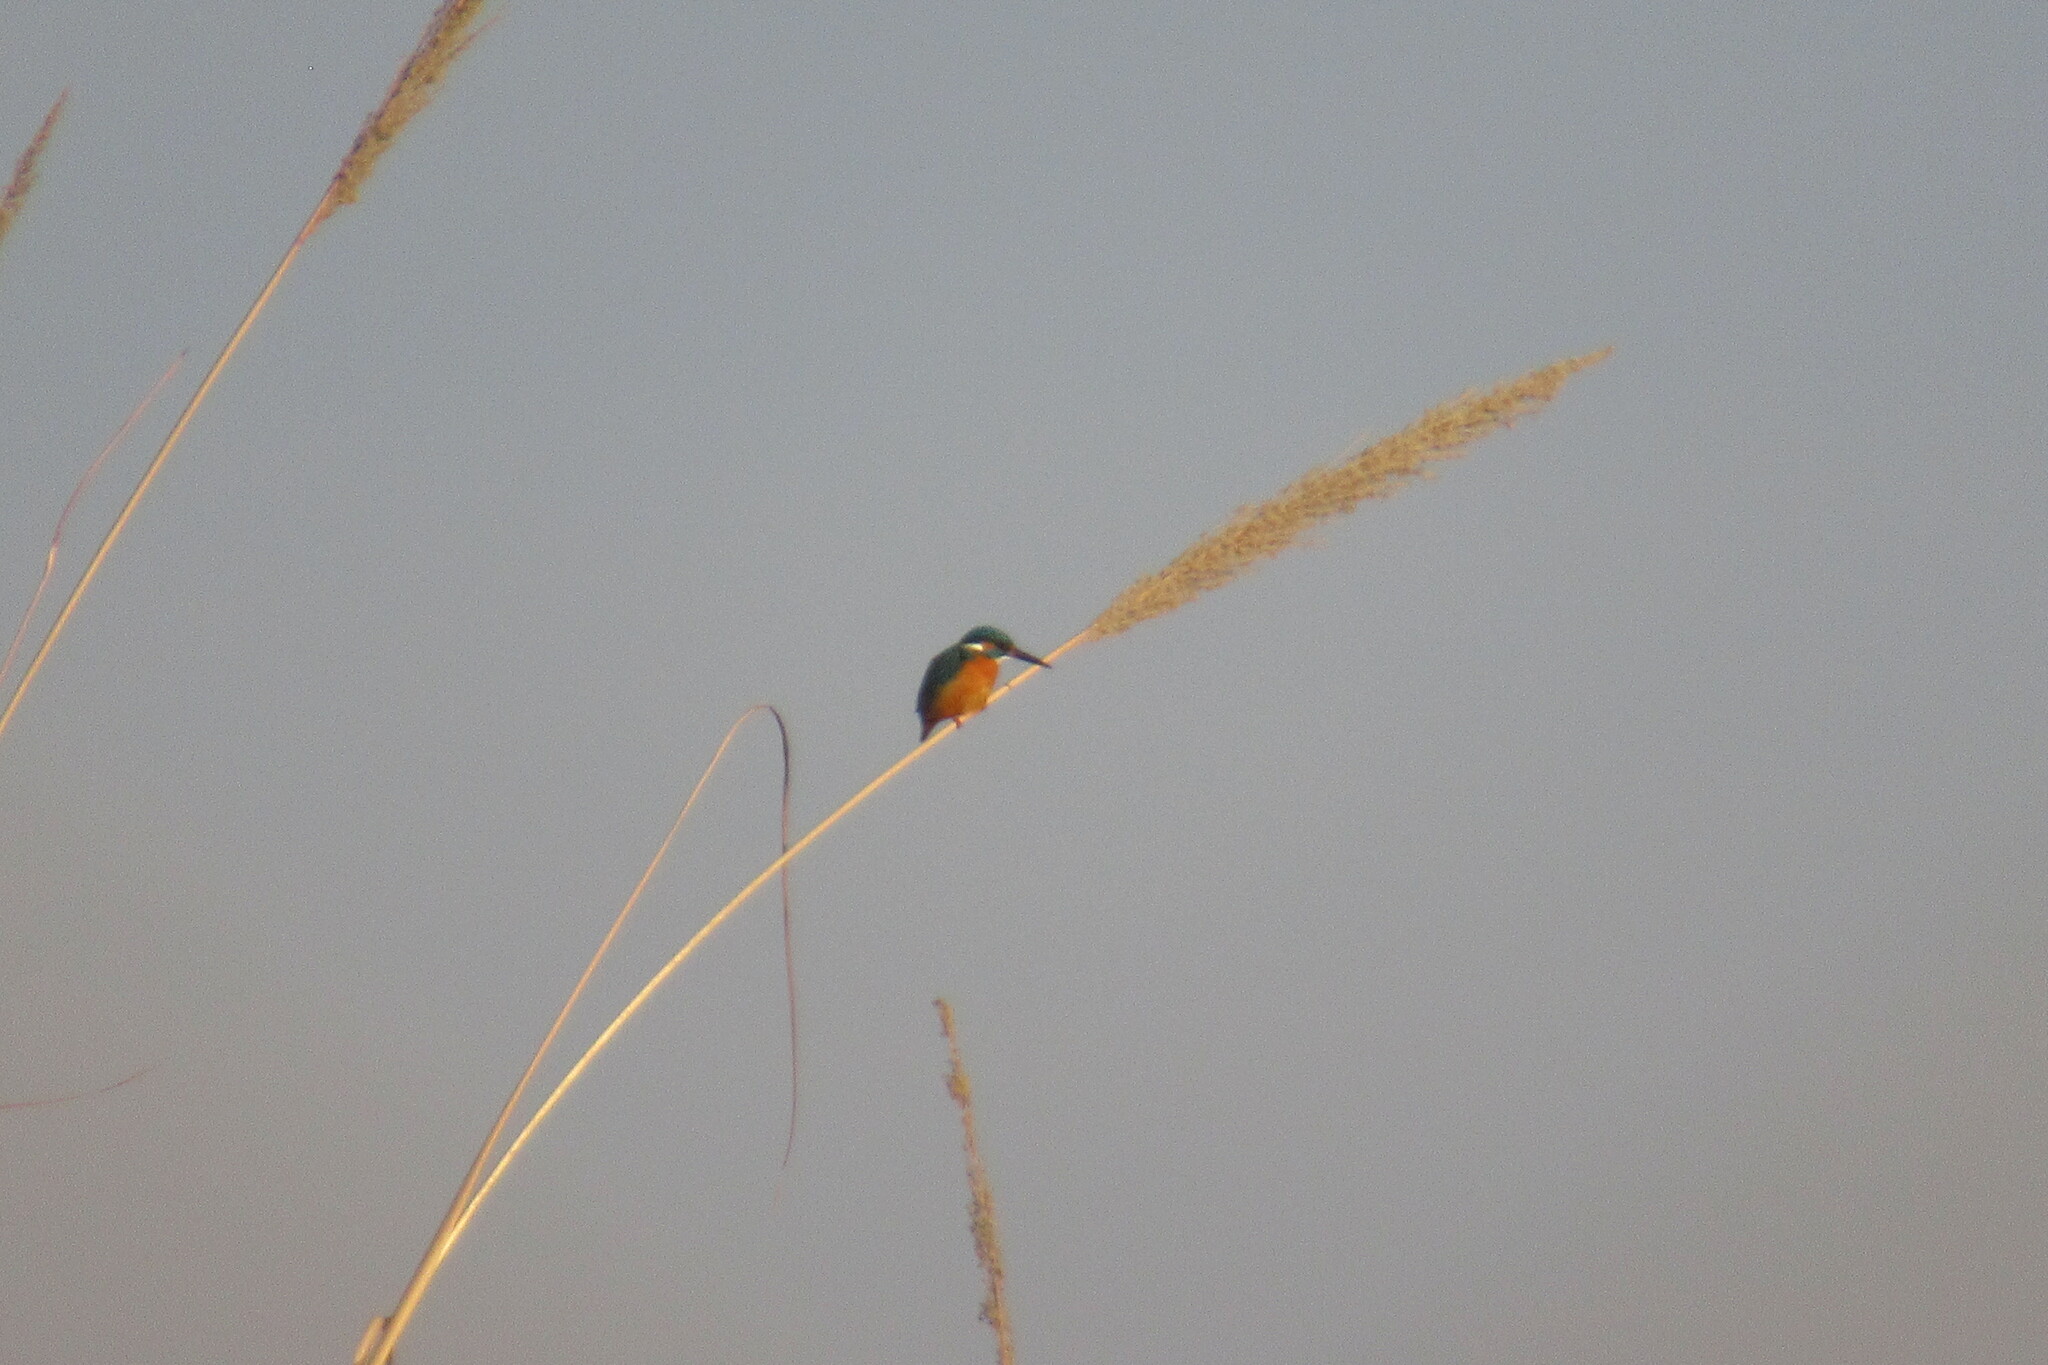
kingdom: Animalia
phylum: Chordata
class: Aves
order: Coraciiformes
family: Alcedinidae
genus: Alcedo
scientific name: Alcedo atthis
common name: Common kingfisher
